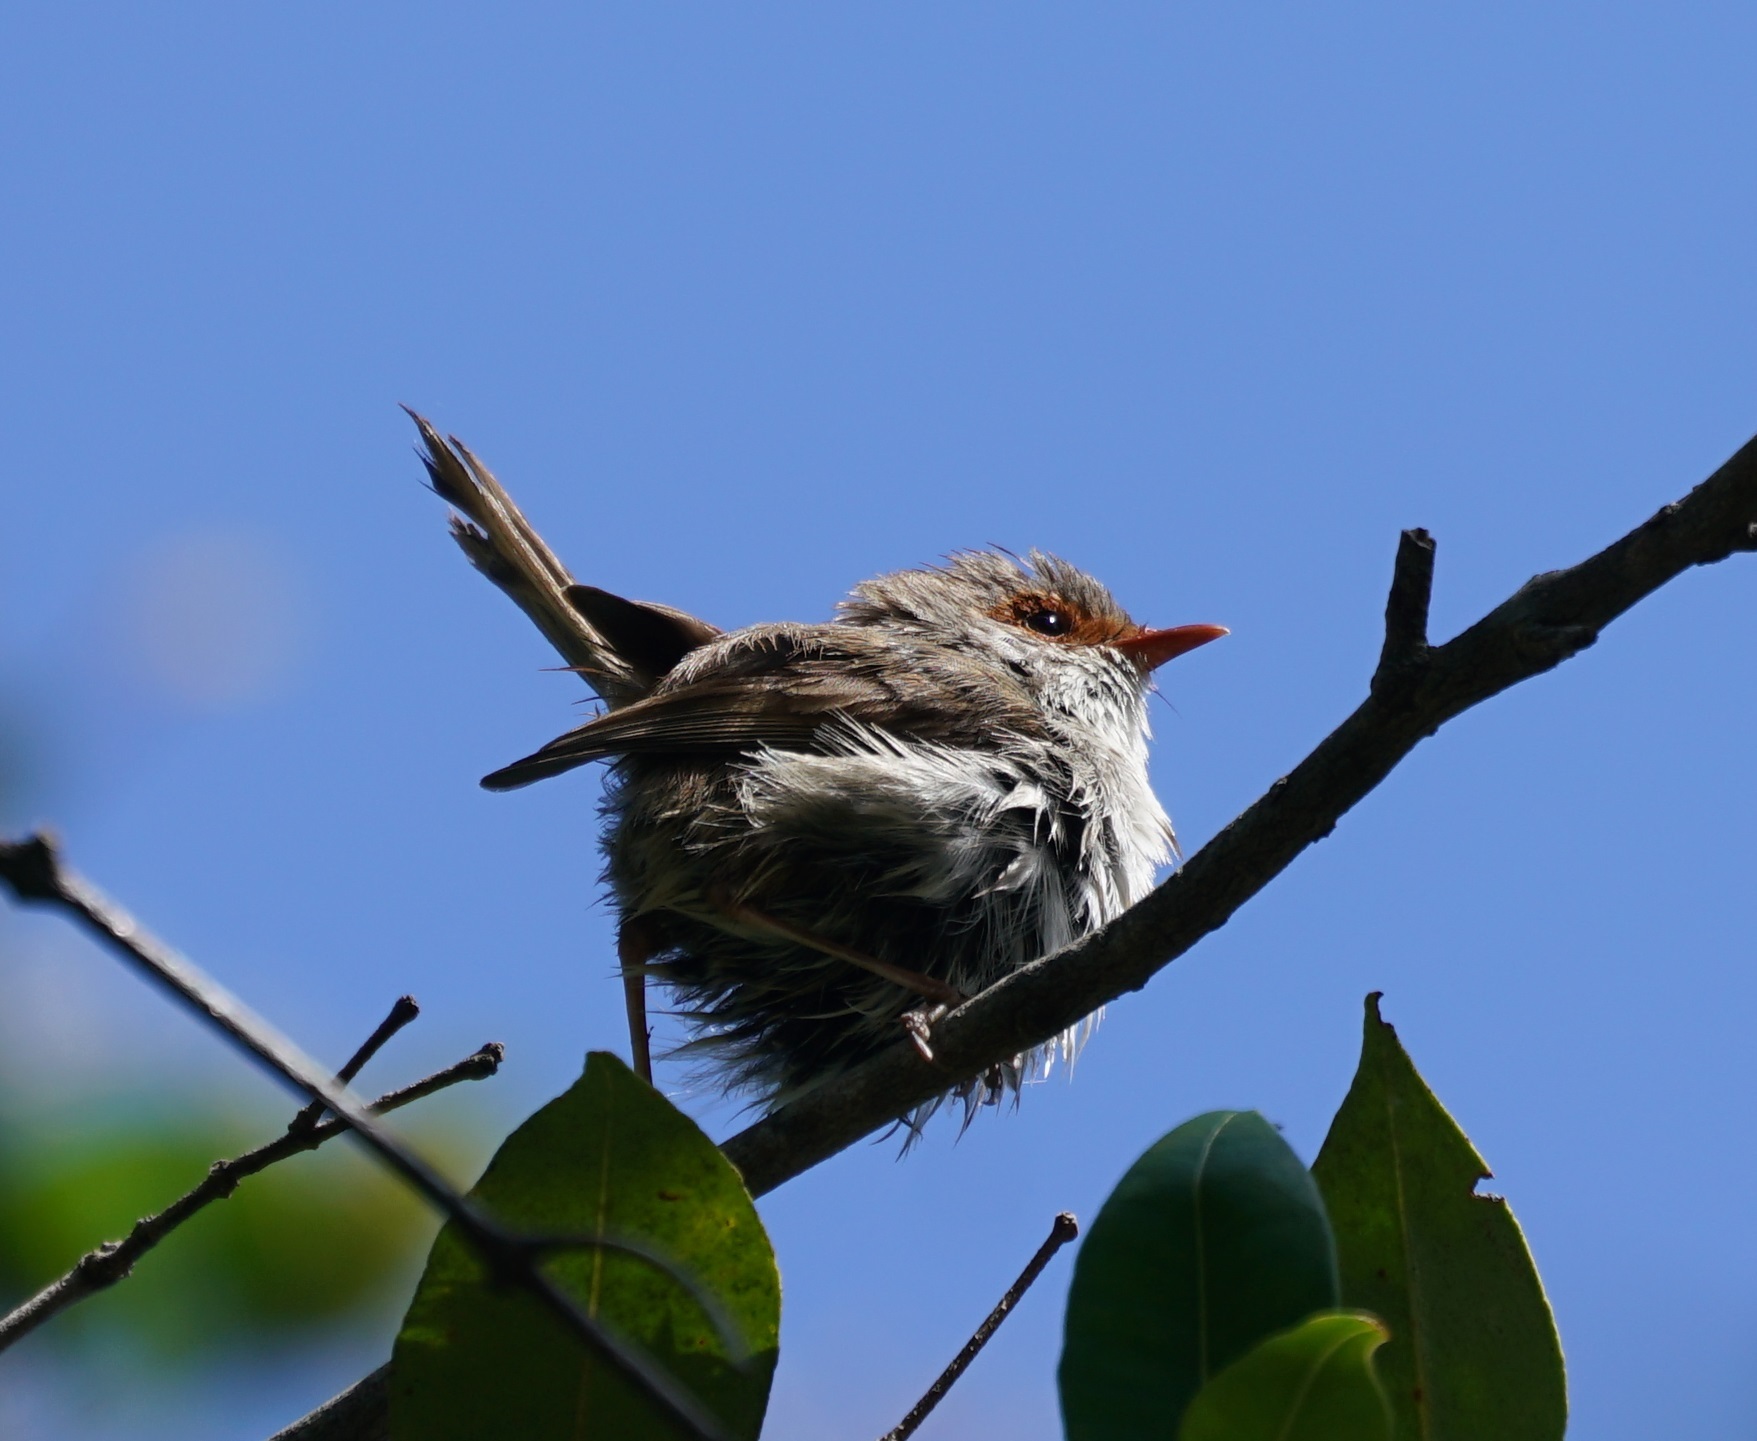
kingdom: Animalia
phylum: Chordata
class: Aves
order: Passeriformes
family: Maluridae
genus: Malurus
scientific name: Malurus cyaneus
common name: Superb fairywren
